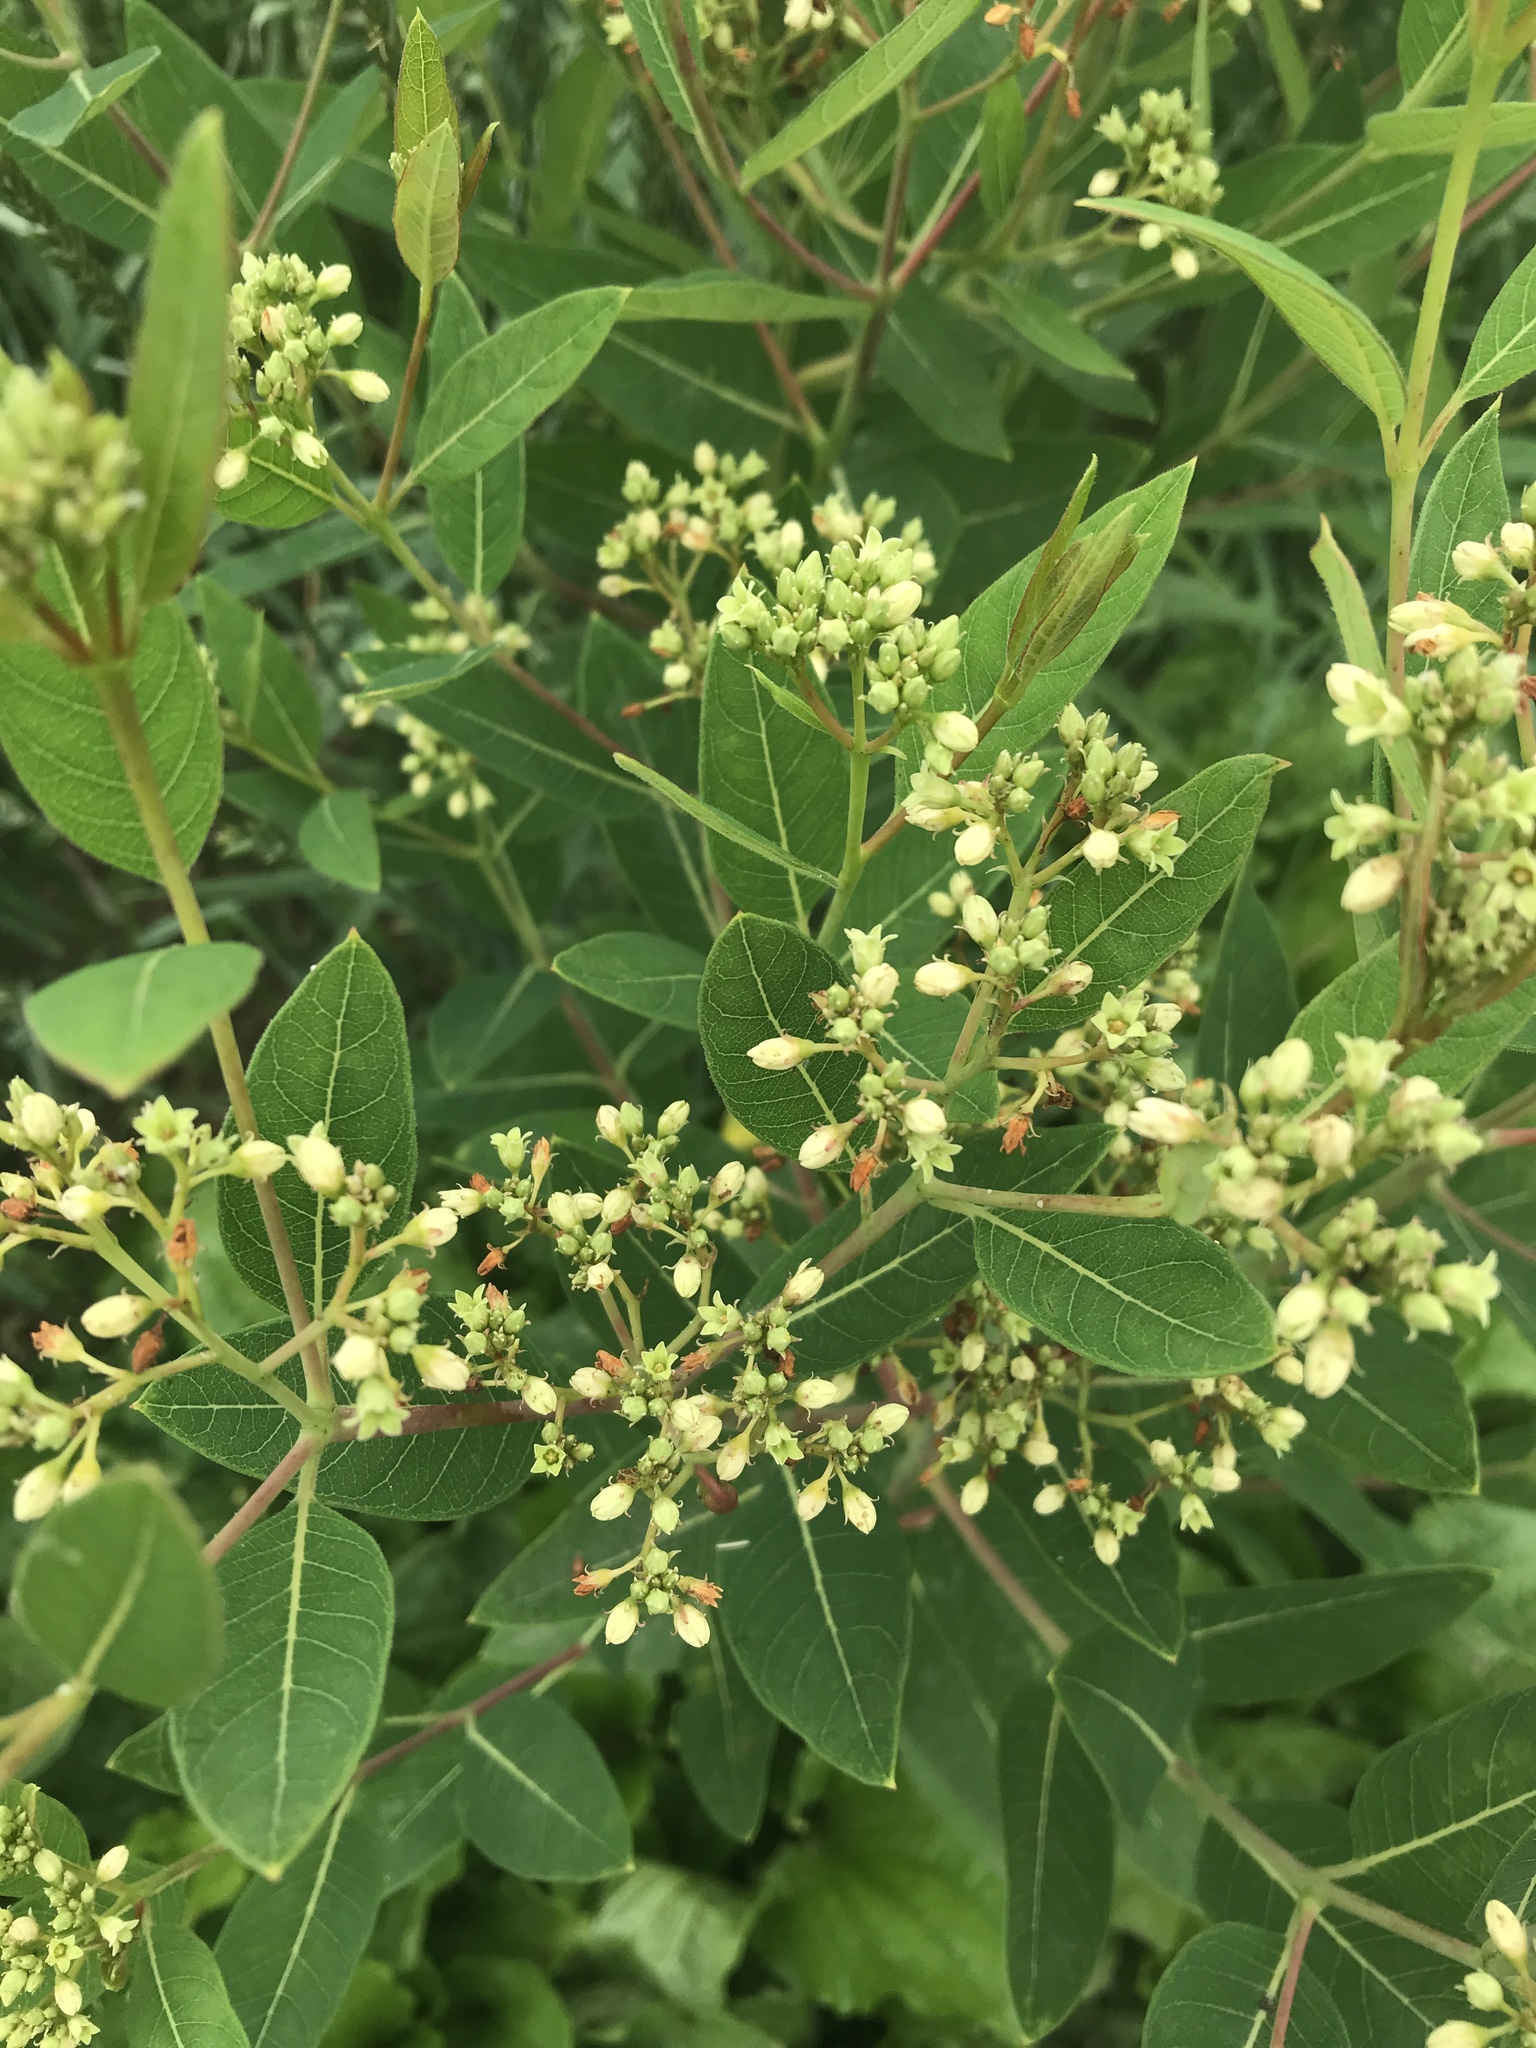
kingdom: Plantae
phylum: Tracheophyta
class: Magnoliopsida
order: Gentianales
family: Apocynaceae
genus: Apocynum
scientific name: Apocynum cannabinum
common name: Hemp dogbane
